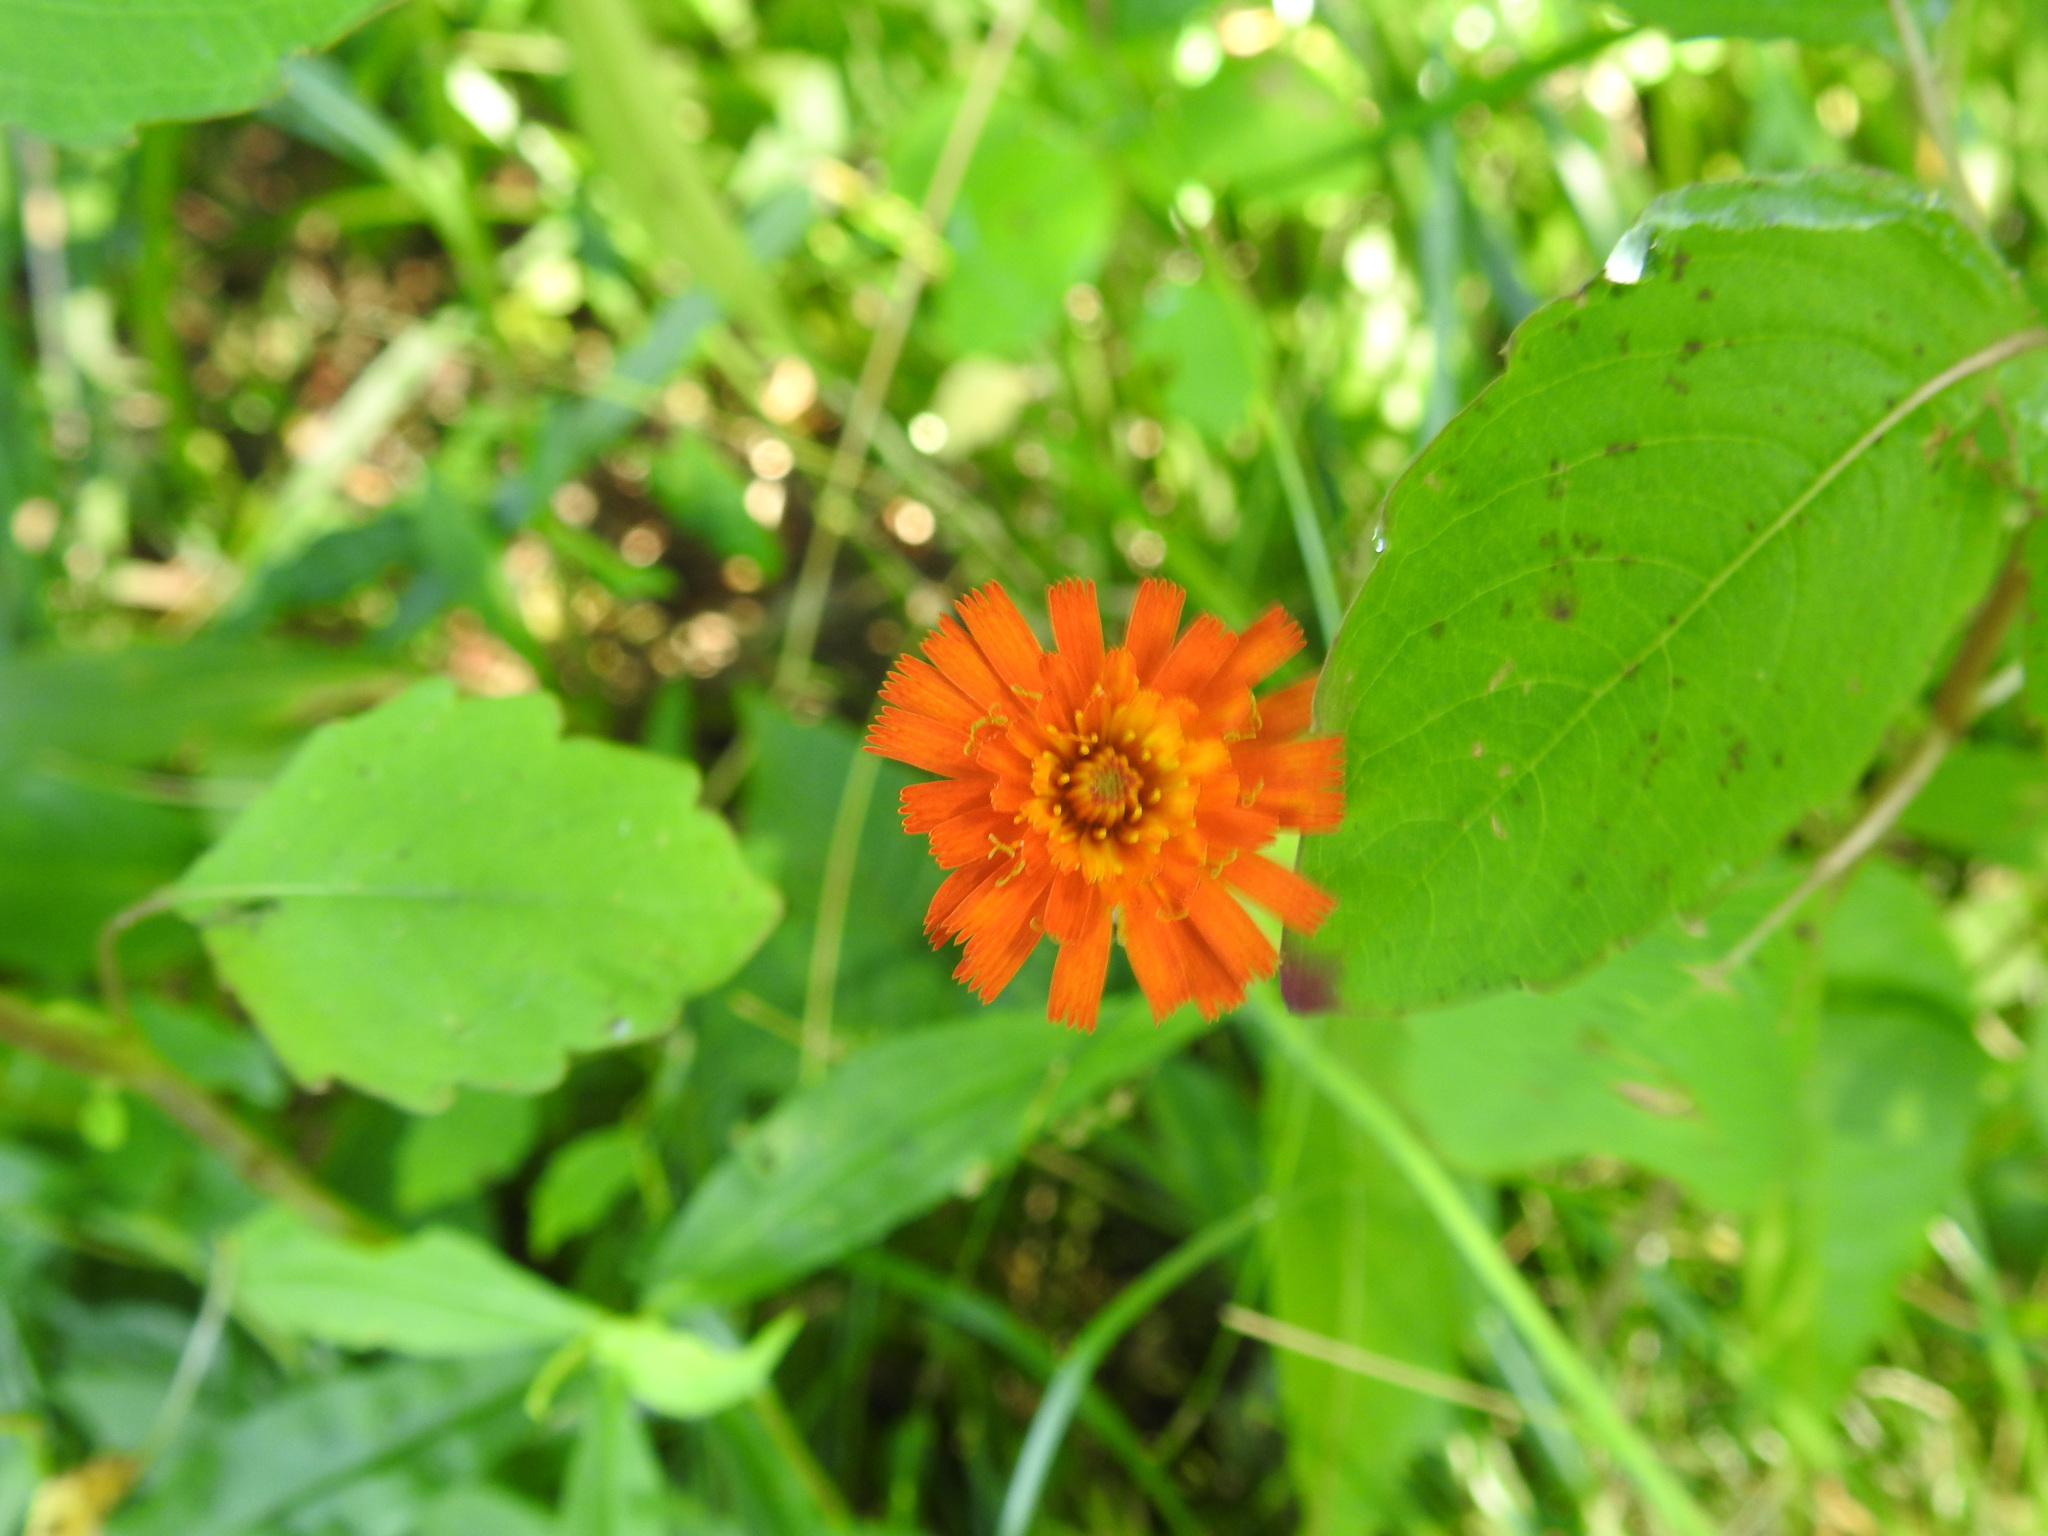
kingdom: Plantae
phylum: Tracheophyta
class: Magnoliopsida
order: Asterales
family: Asteraceae
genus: Pilosella
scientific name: Pilosella aurantiaca
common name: Fox-and-cubs
